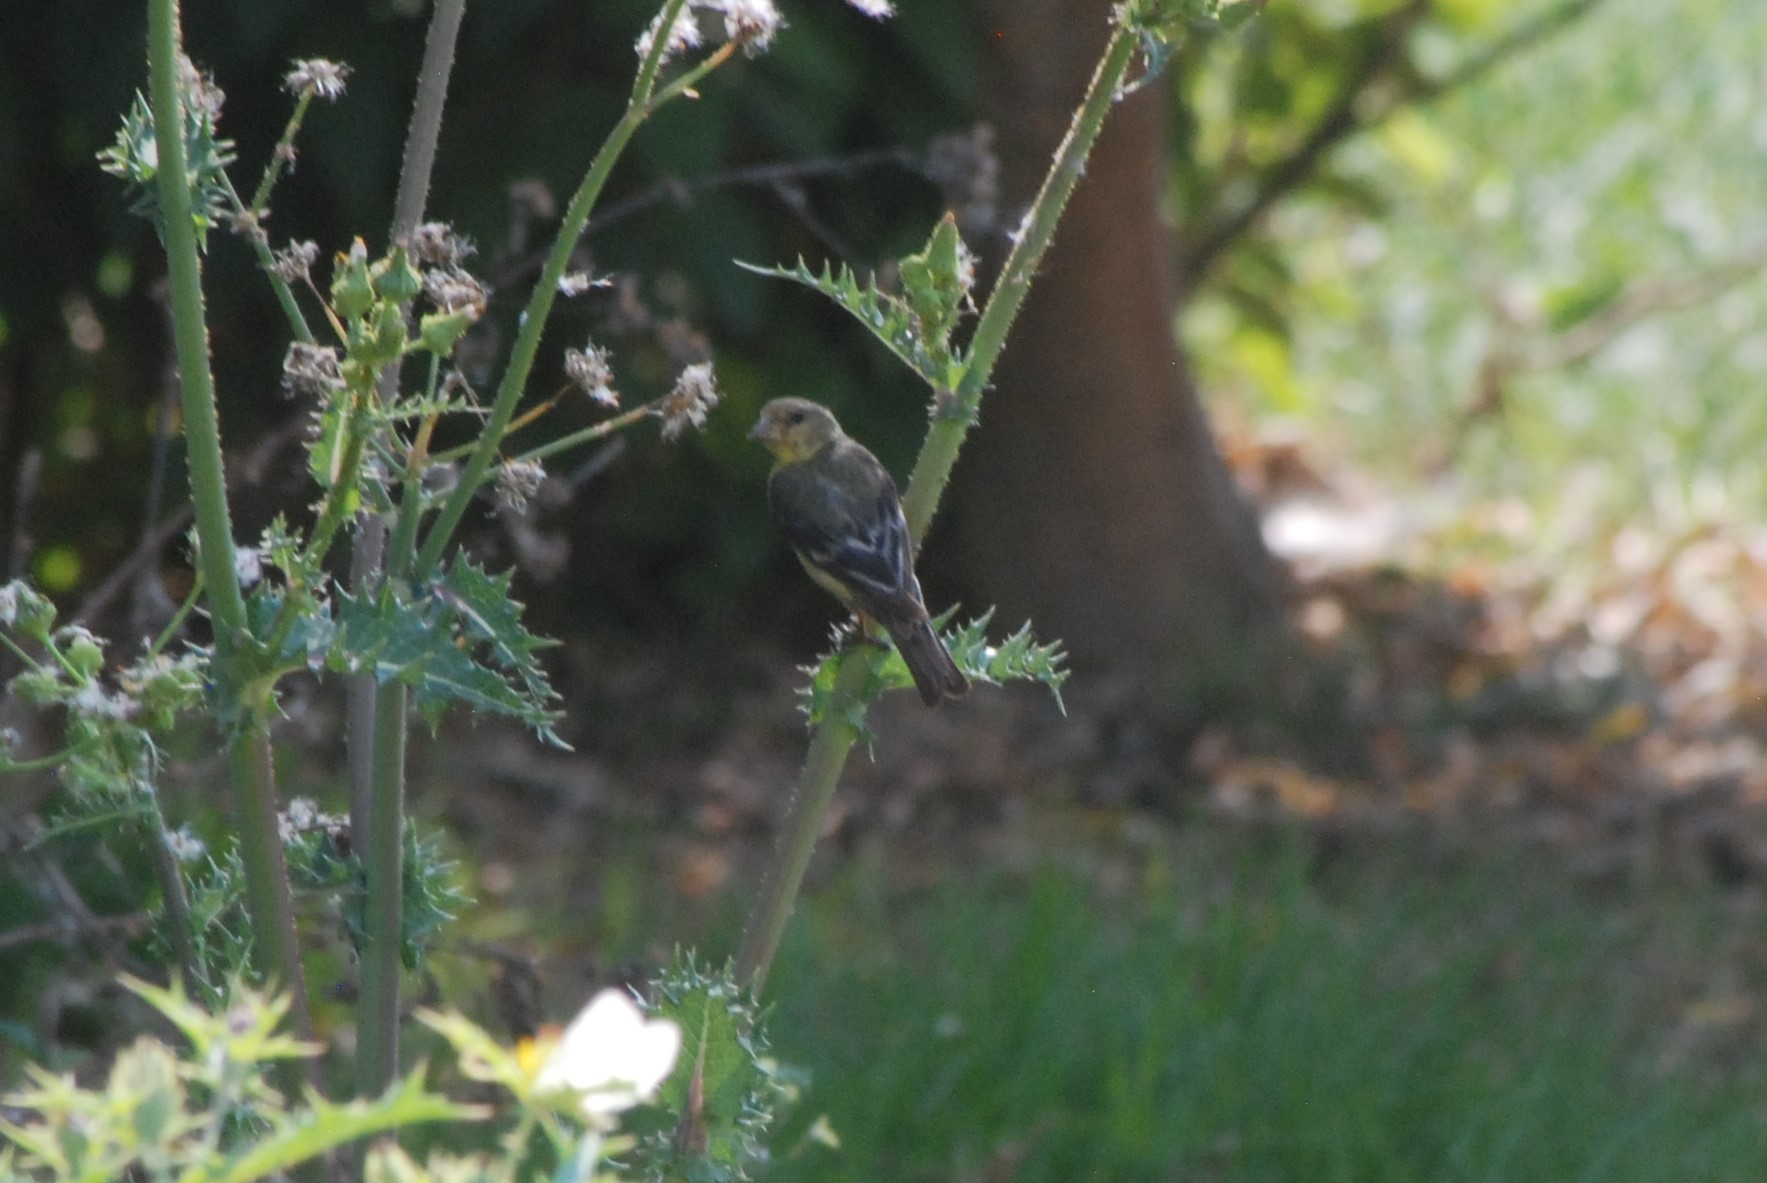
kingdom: Animalia
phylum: Chordata
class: Aves
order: Passeriformes
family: Fringillidae
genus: Spinus
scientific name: Spinus psaltria
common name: Lesser goldfinch
